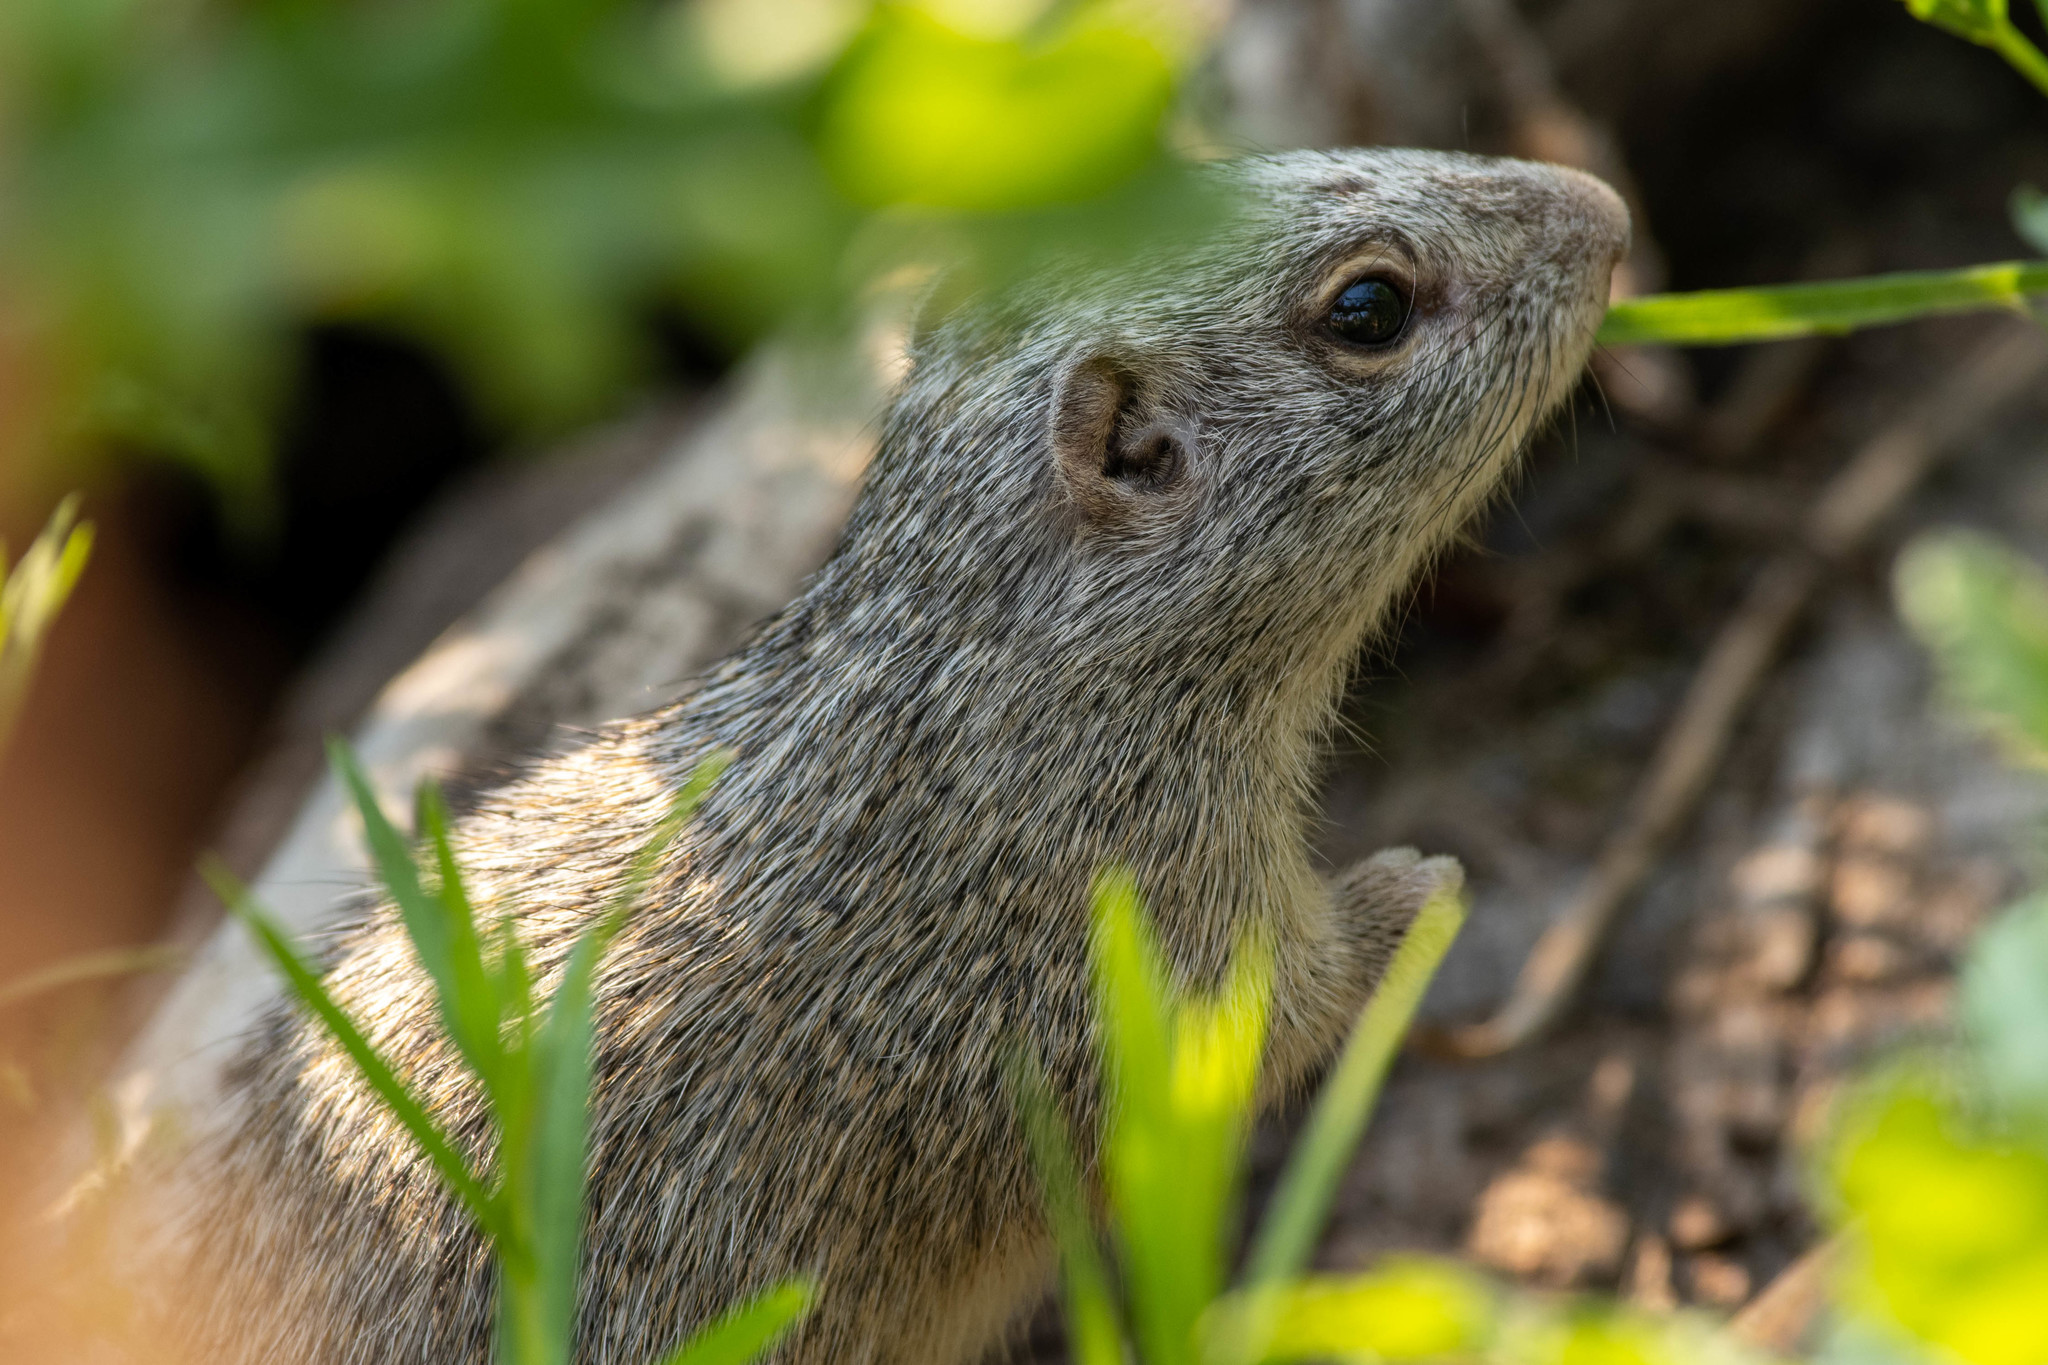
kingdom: Animalia
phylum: Chordata
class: Mammalia
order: Rodentia
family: Sciuridae
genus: Poliocitellus
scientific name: Poliocitellus franklinii
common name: Franklin's ground squirrel
